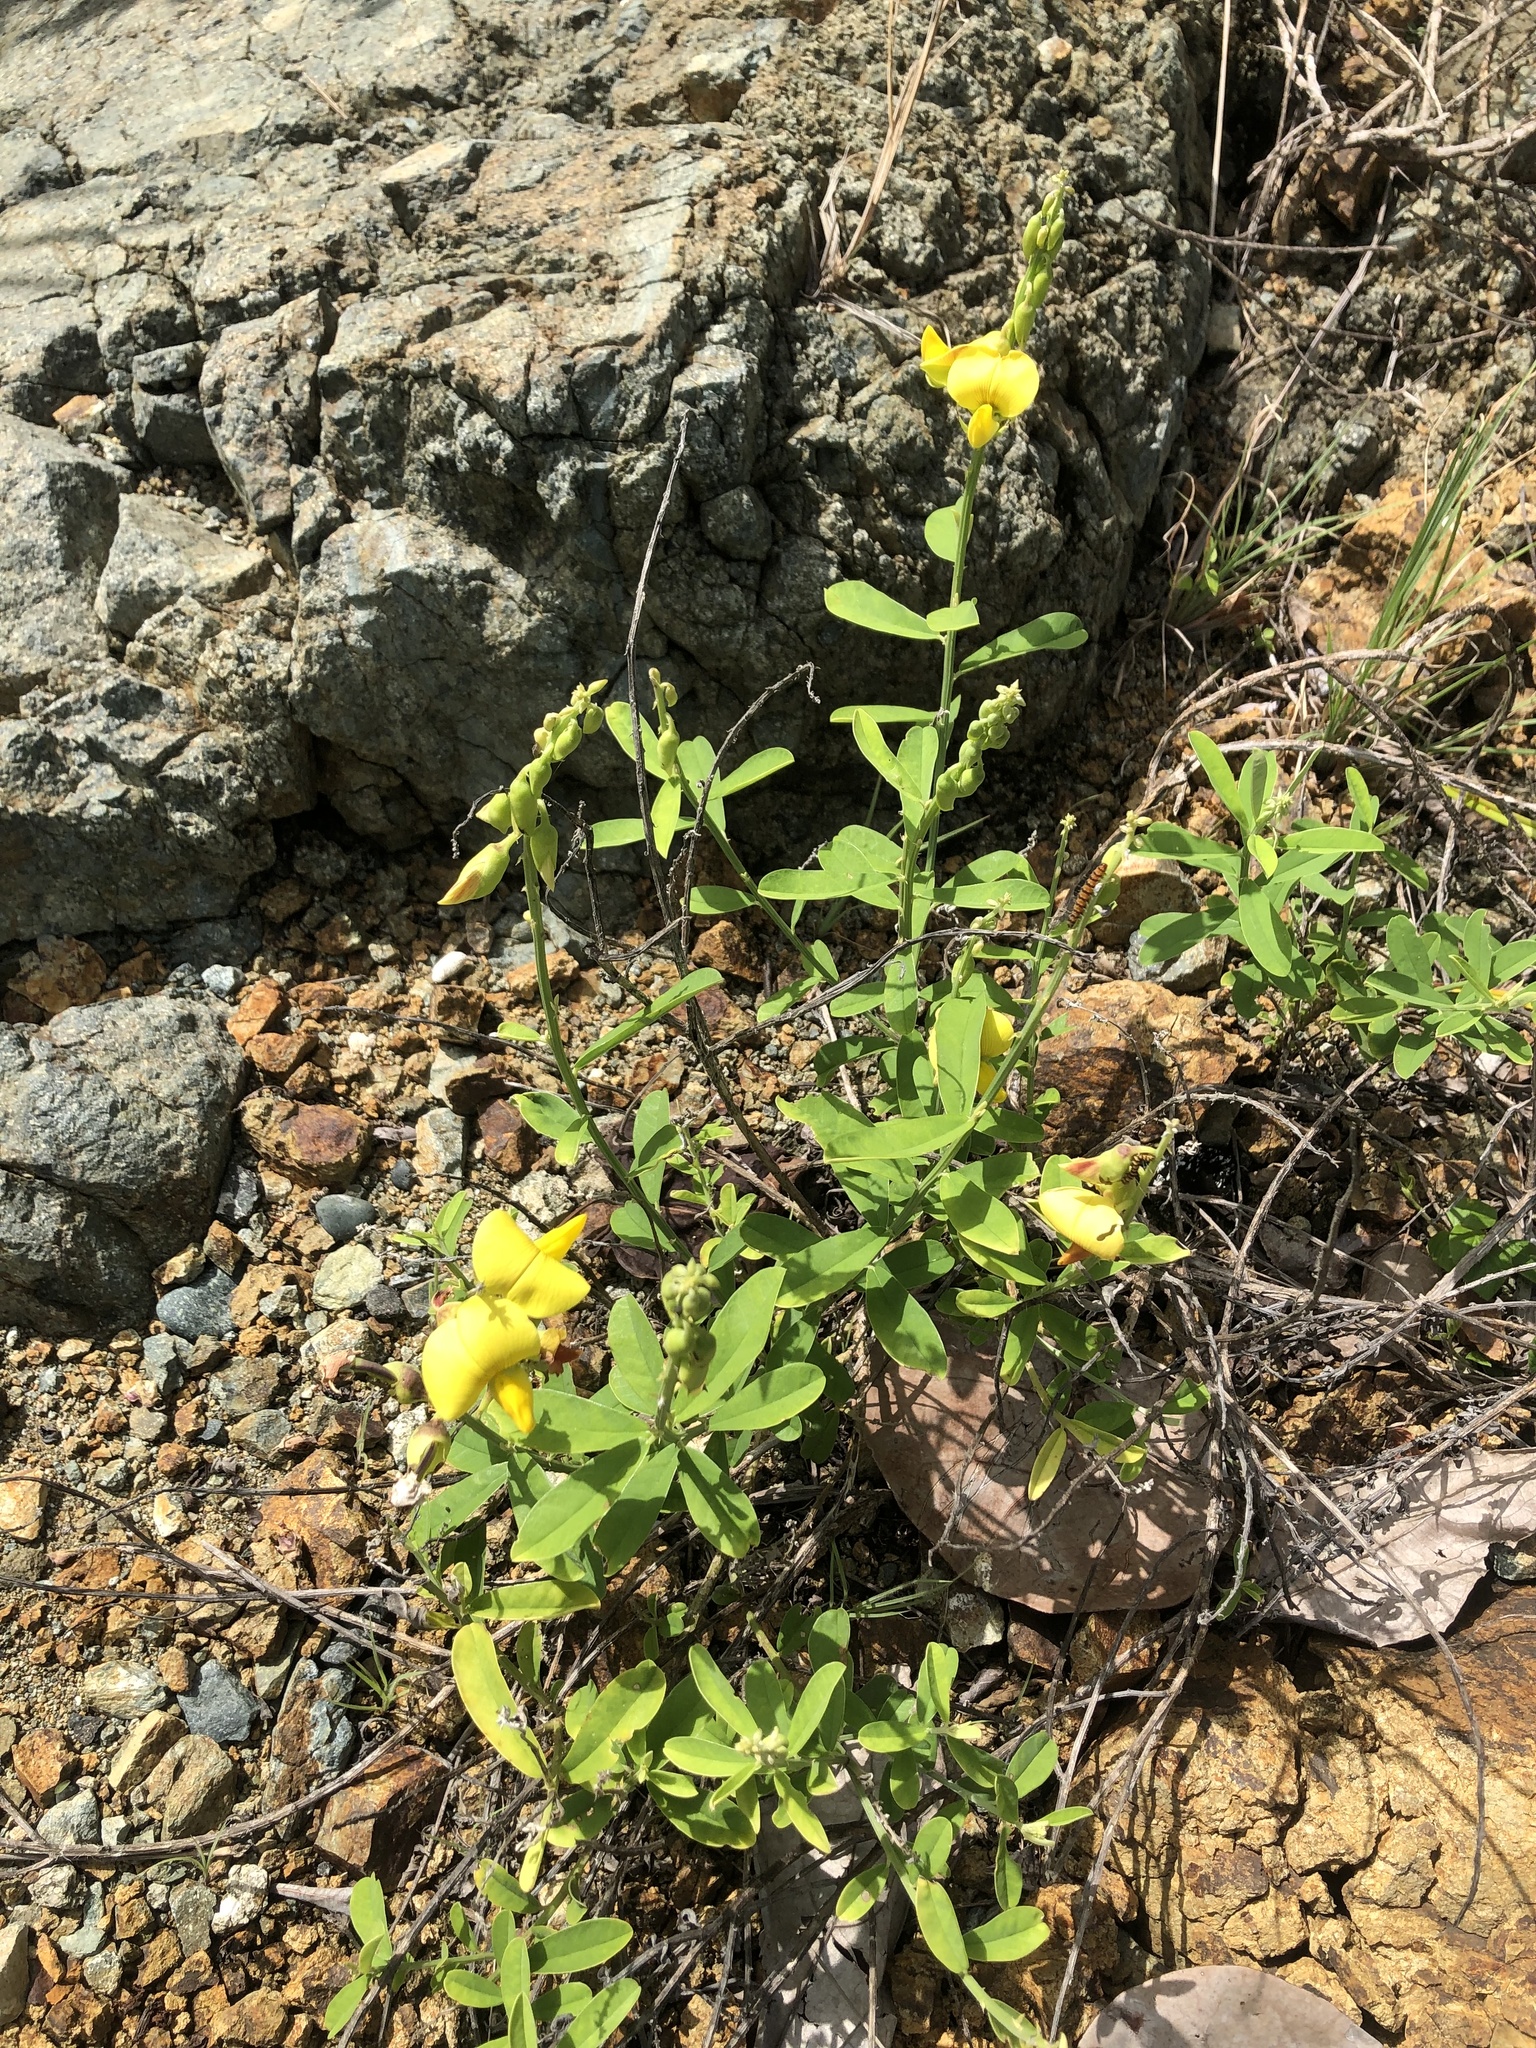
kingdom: Plantae
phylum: Tracheophyta
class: Magnoliopsida
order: Fabales
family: Fabaceae
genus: Crotalaria
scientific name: Crotalaria retusa
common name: Rattleweed
